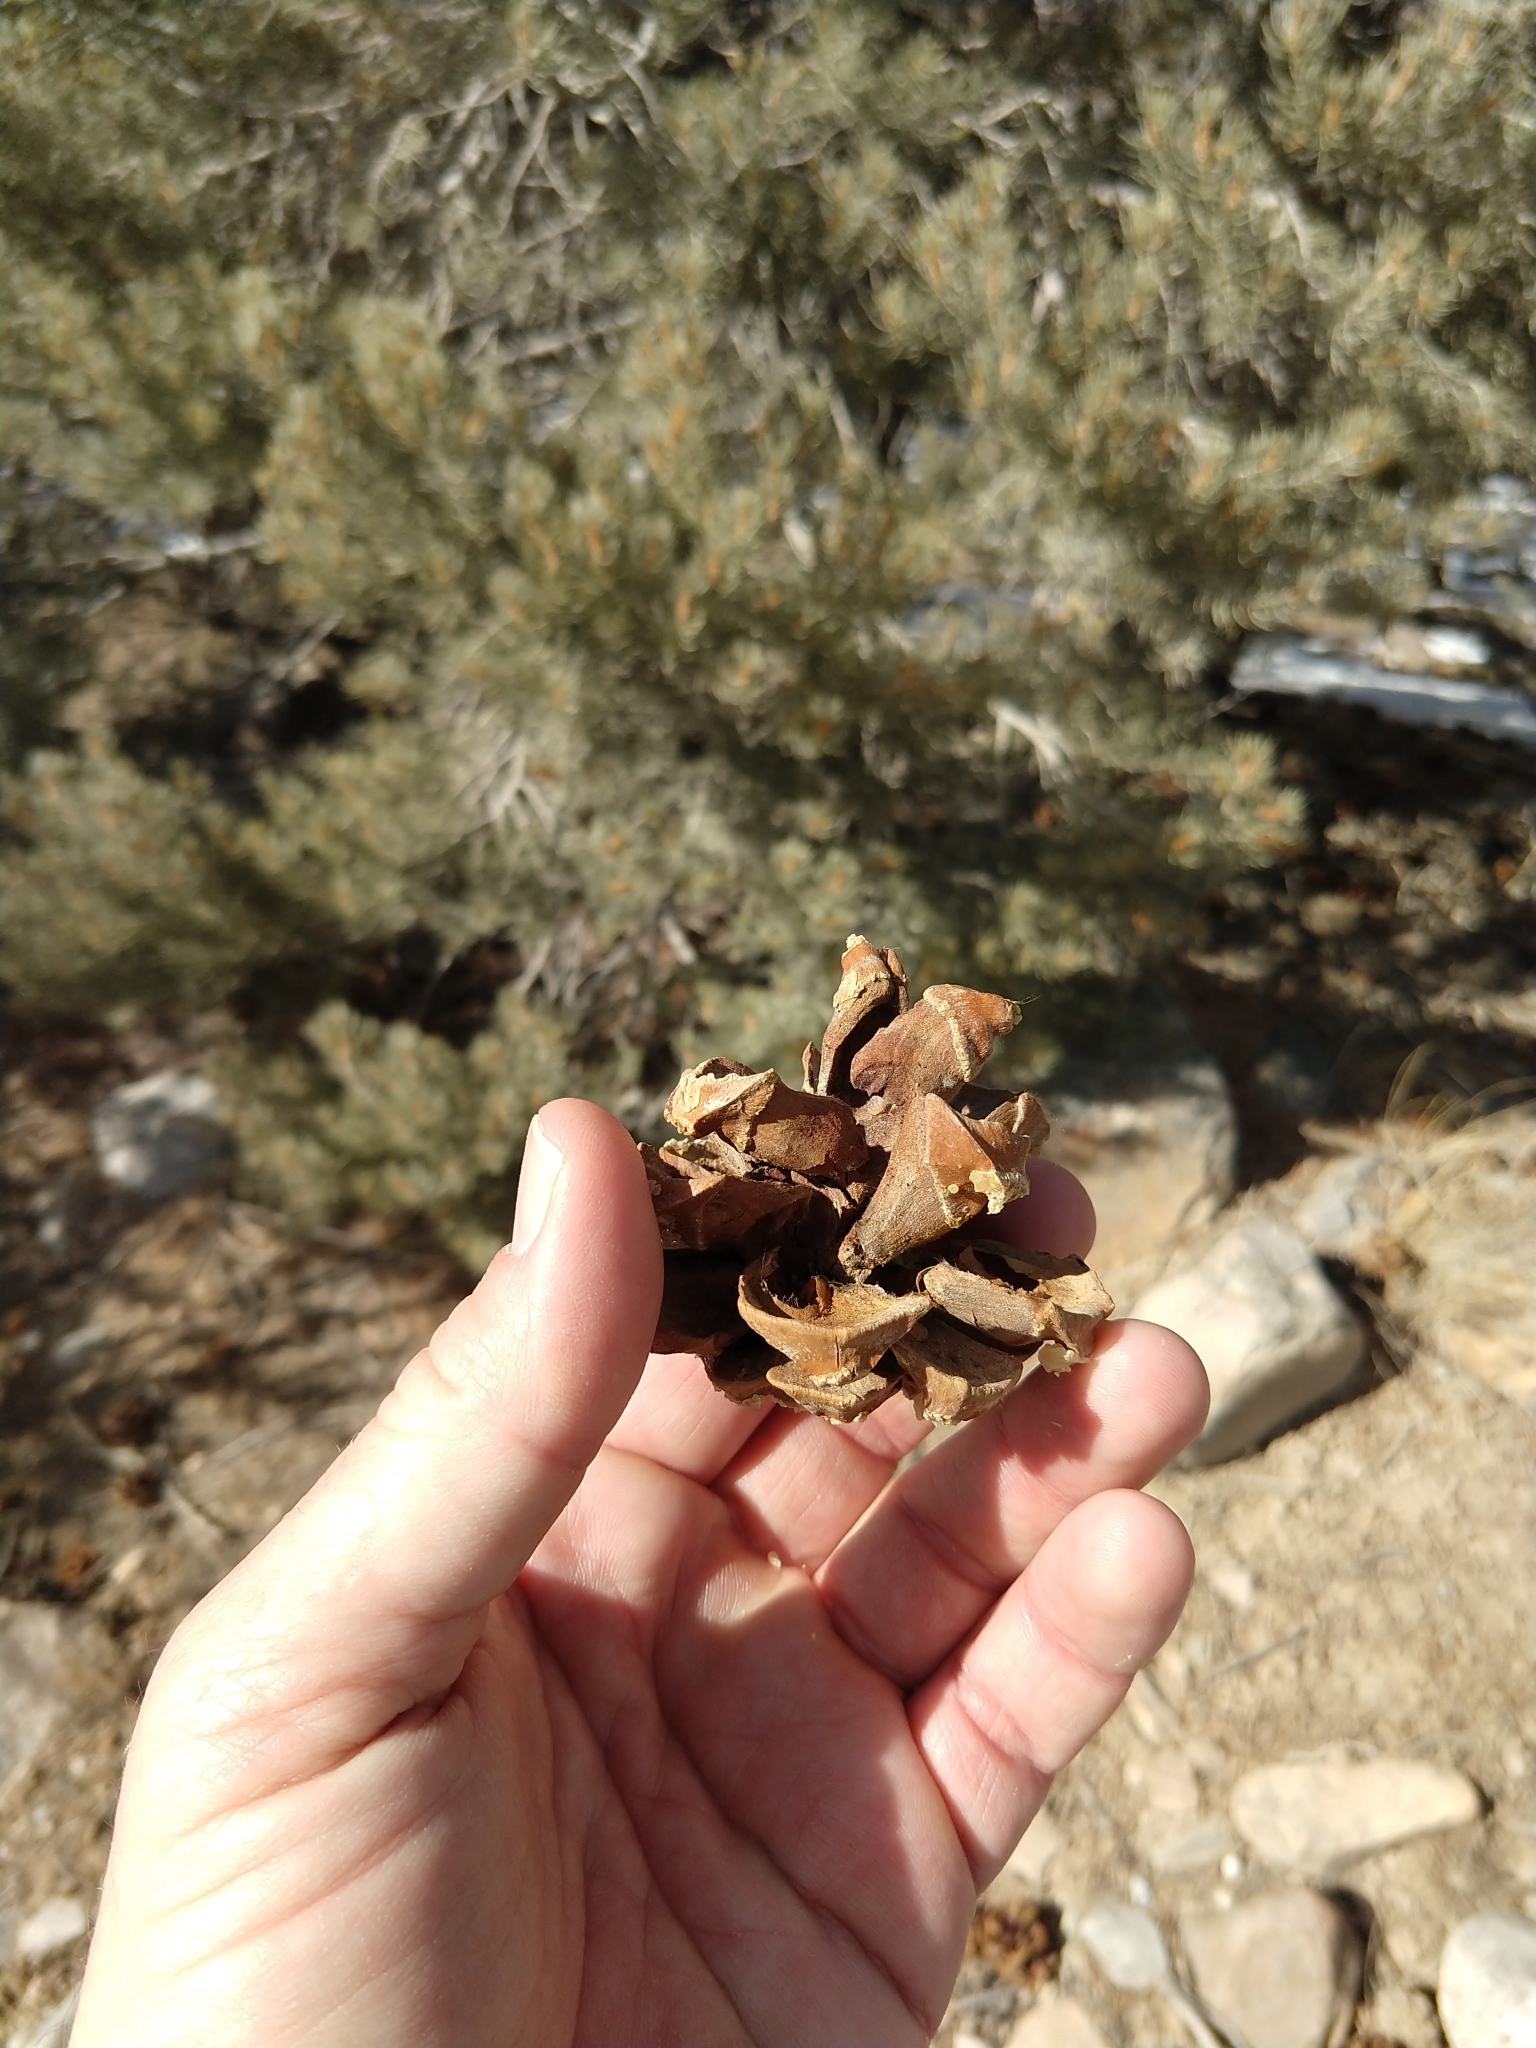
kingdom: Plantae
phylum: Tracheophyta
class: Pinopsida
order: Pinales
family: Pinaceae
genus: Pinus
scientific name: Pinus monophylla
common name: One-leaved nut pine
